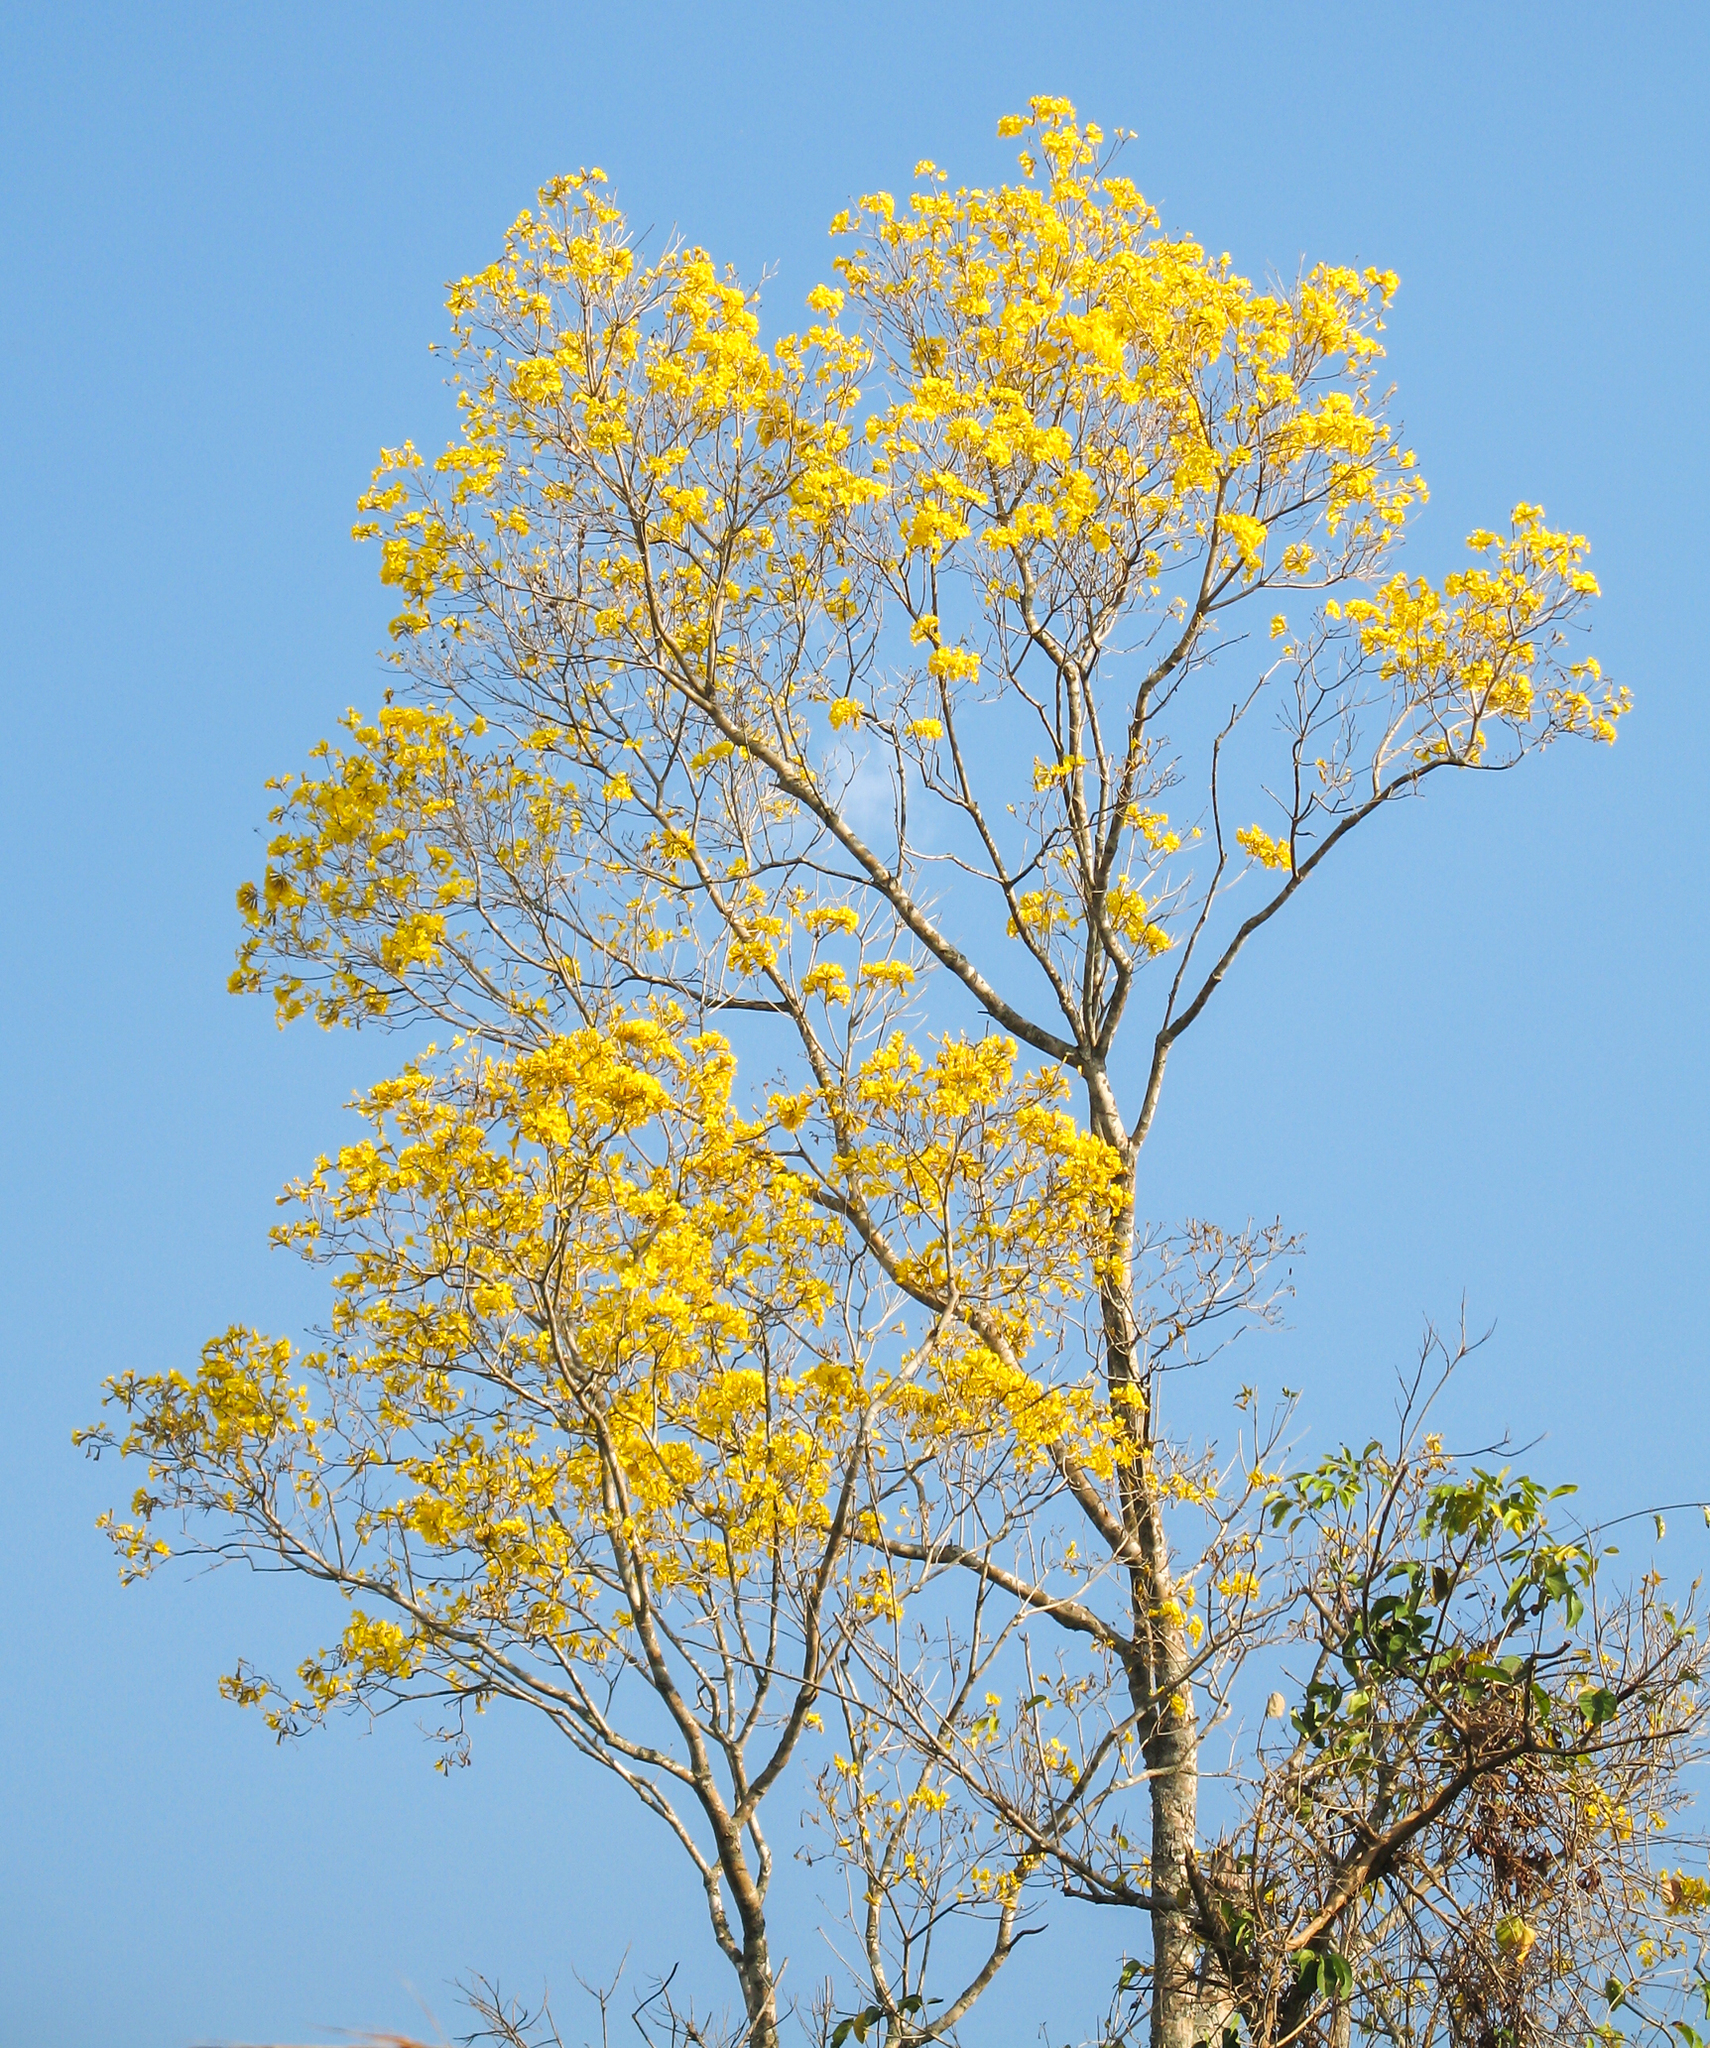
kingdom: Plantae
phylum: Tracheophyta
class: Magnoliopsida
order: Lamiales
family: Bignoniaceae
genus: Handroanthus
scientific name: Handroanthus serratifolius
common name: Yellow ipe
